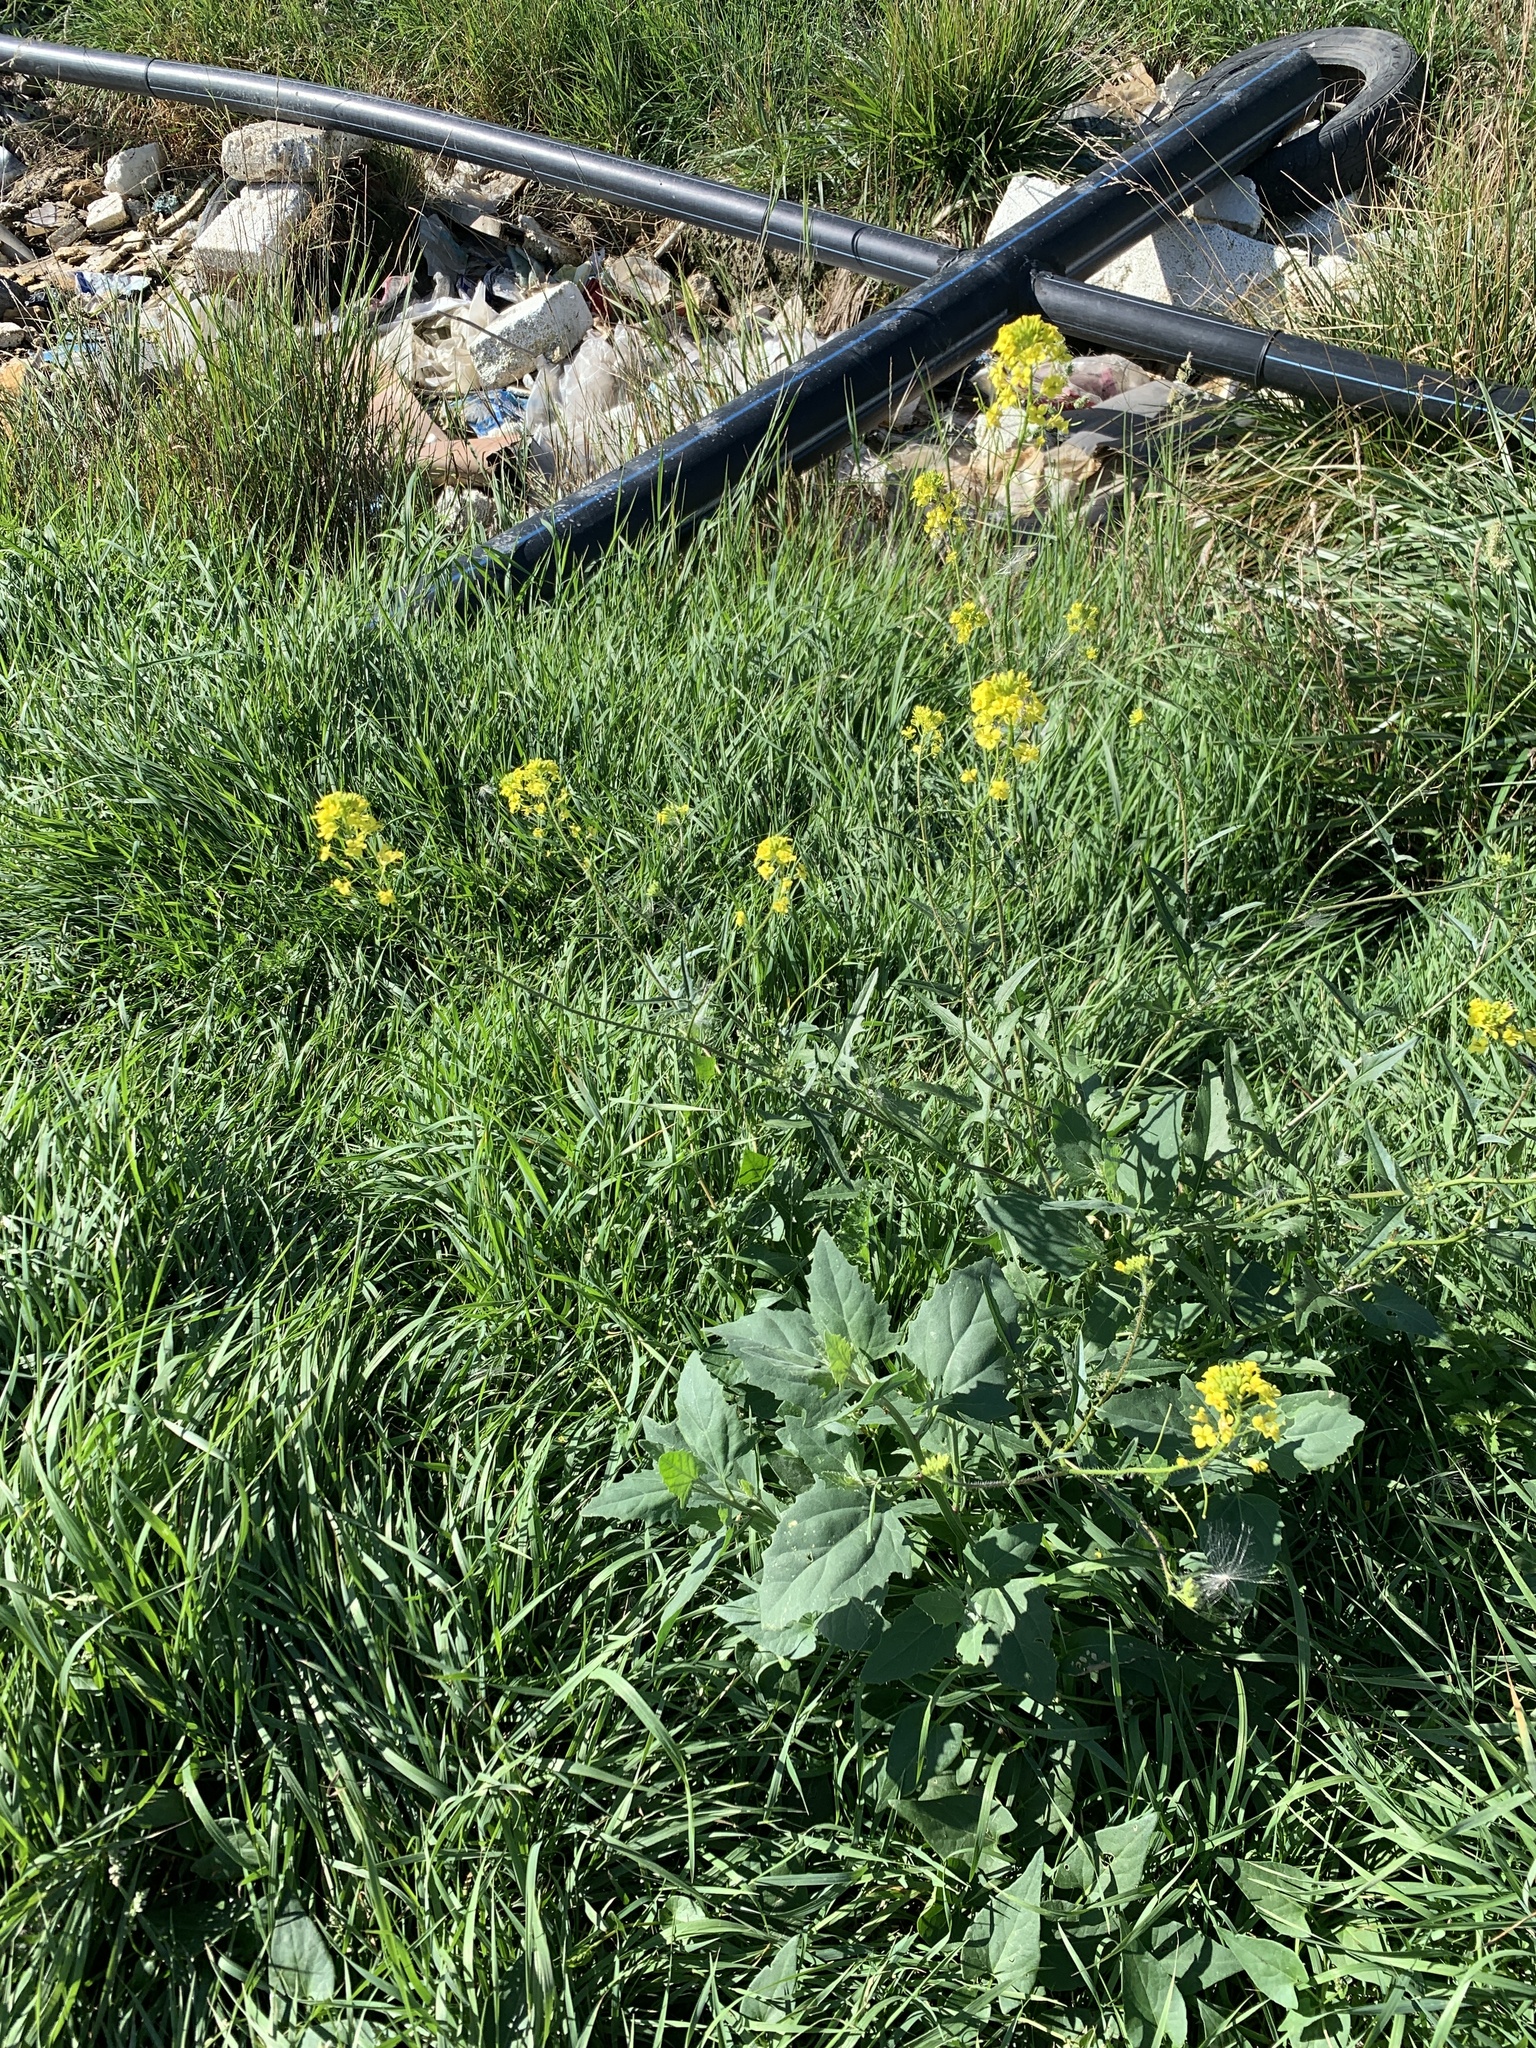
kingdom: Plantae
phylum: Tracheophyta
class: Magnoliopsida
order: Brassicales
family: Brassicaceae
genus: Sisymbrium
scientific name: Sisymbrium loeselii
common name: False london-rocket
